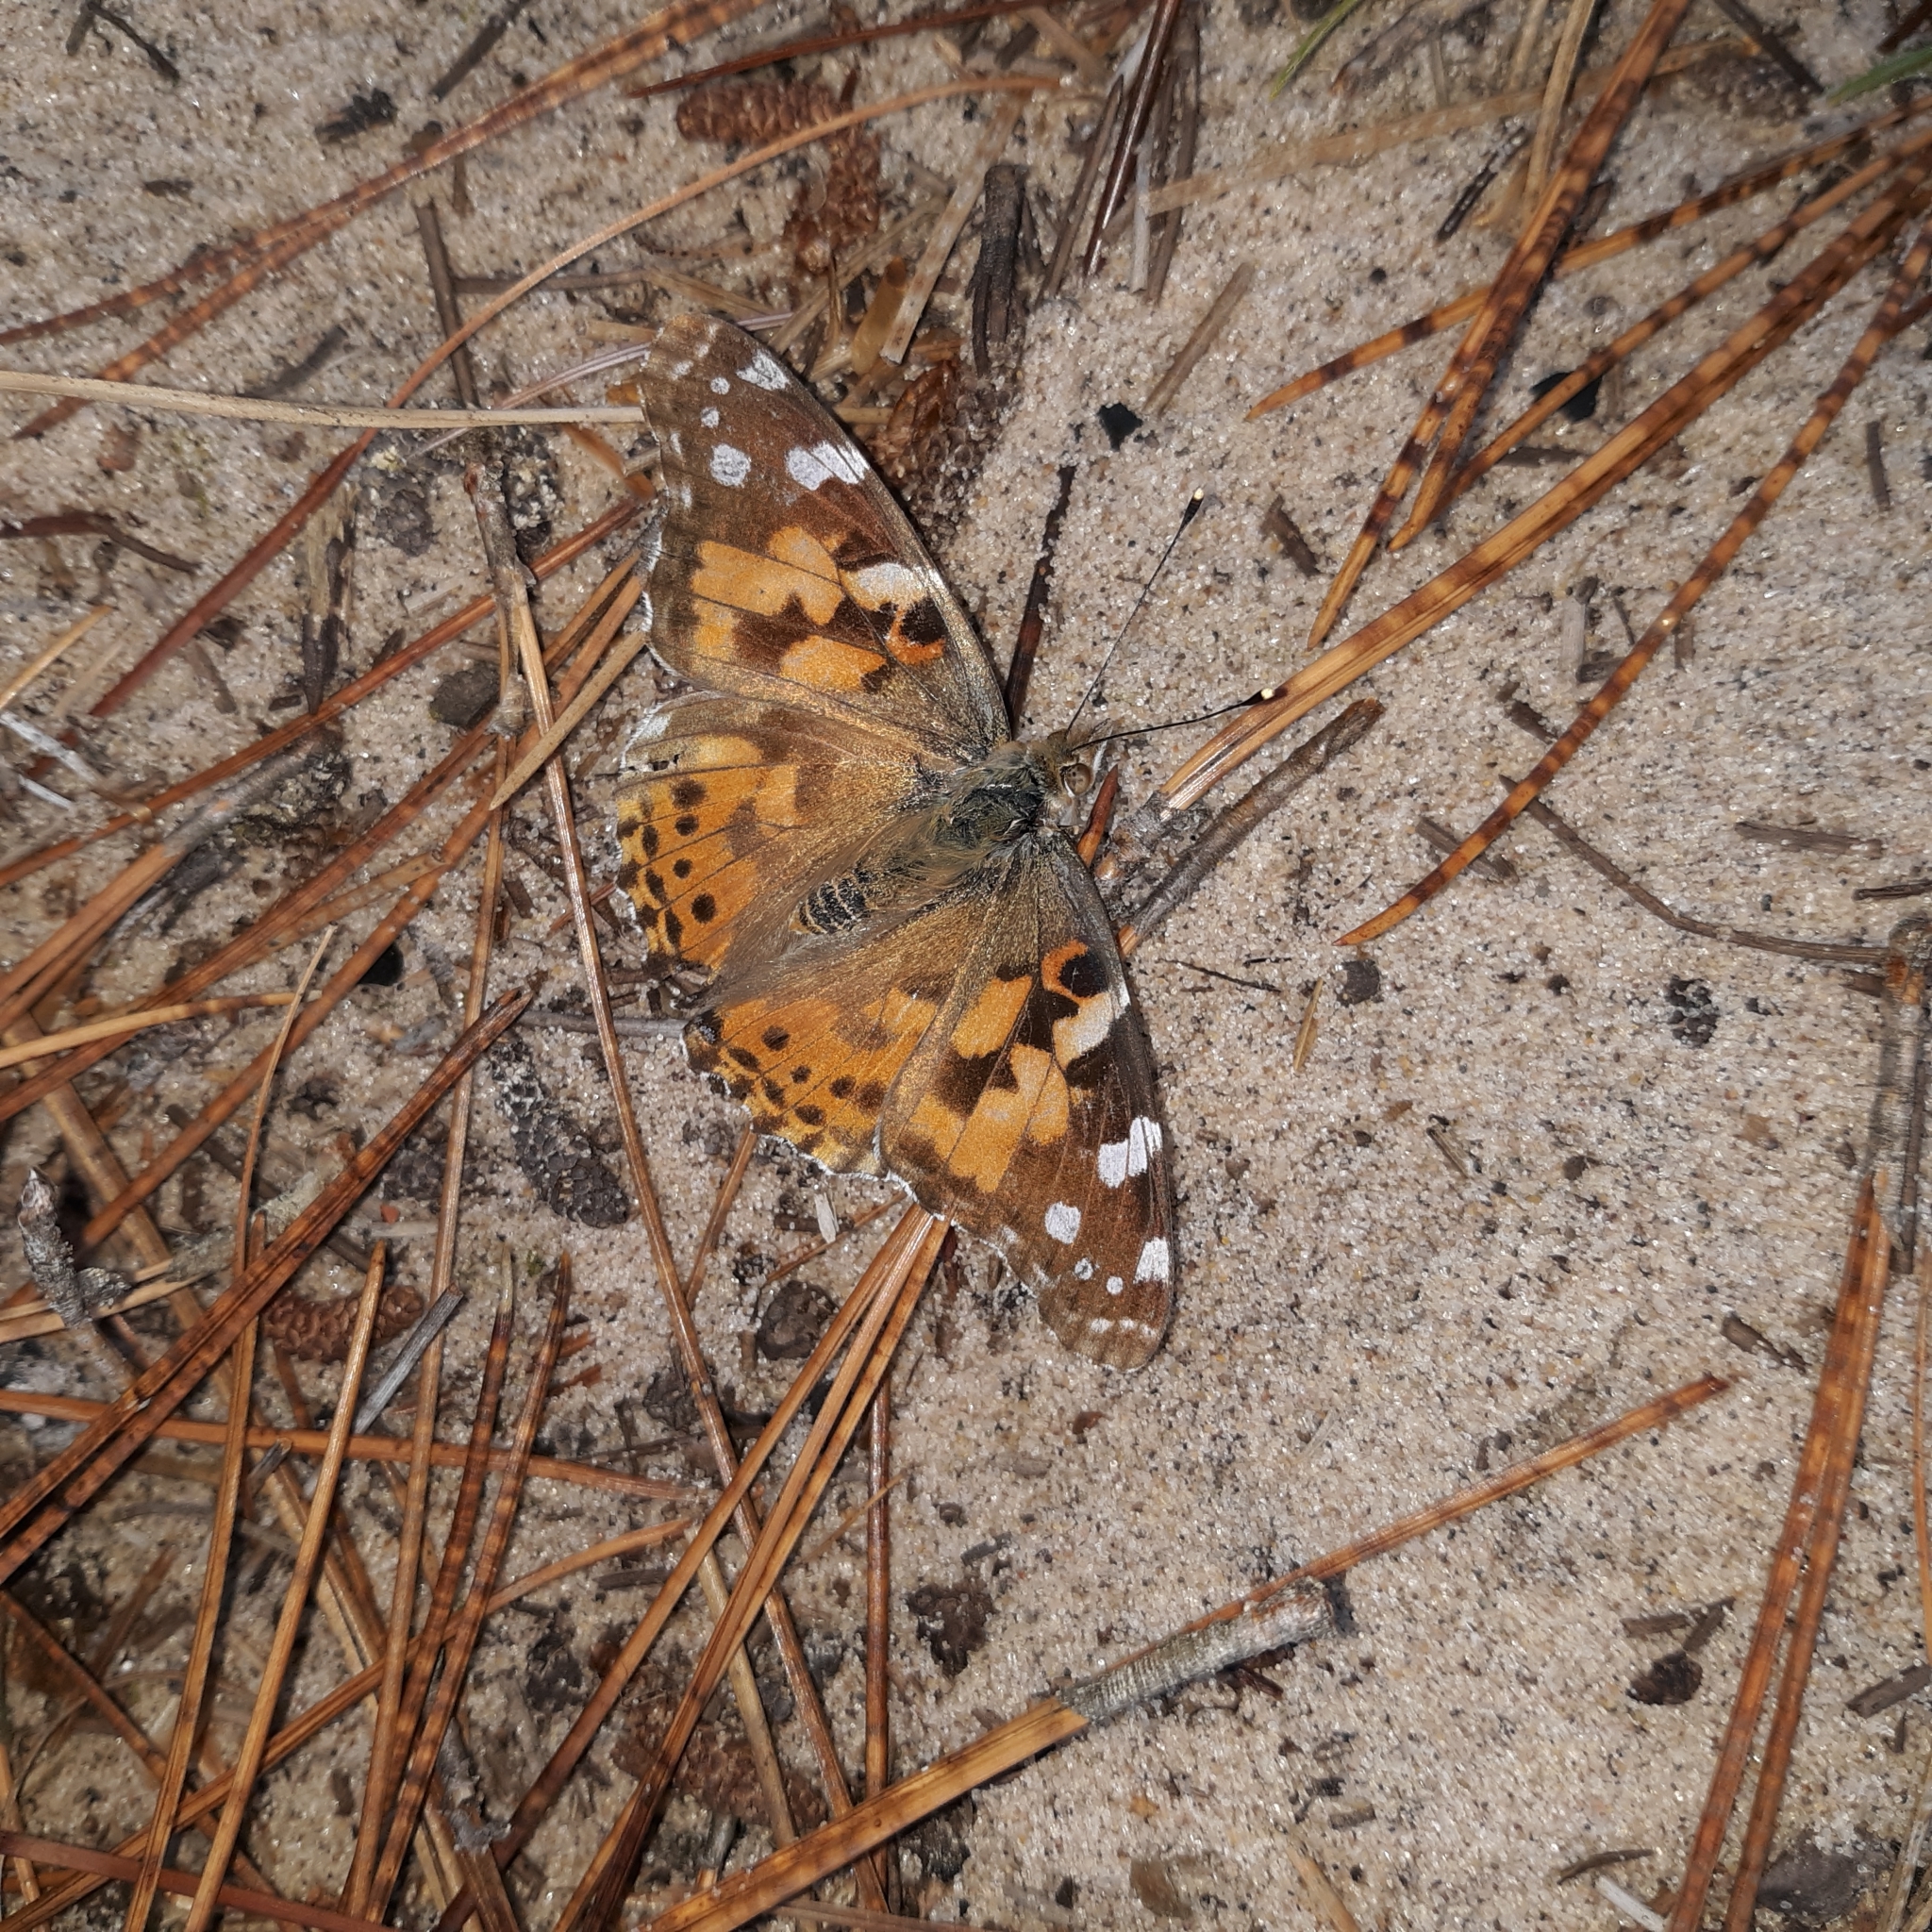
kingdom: Animalia
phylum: Arthropoda
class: Insecta
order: Lepidoptera
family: Nymphalidae
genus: Vanessa
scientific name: Vanessa cardui
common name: Painted lady
